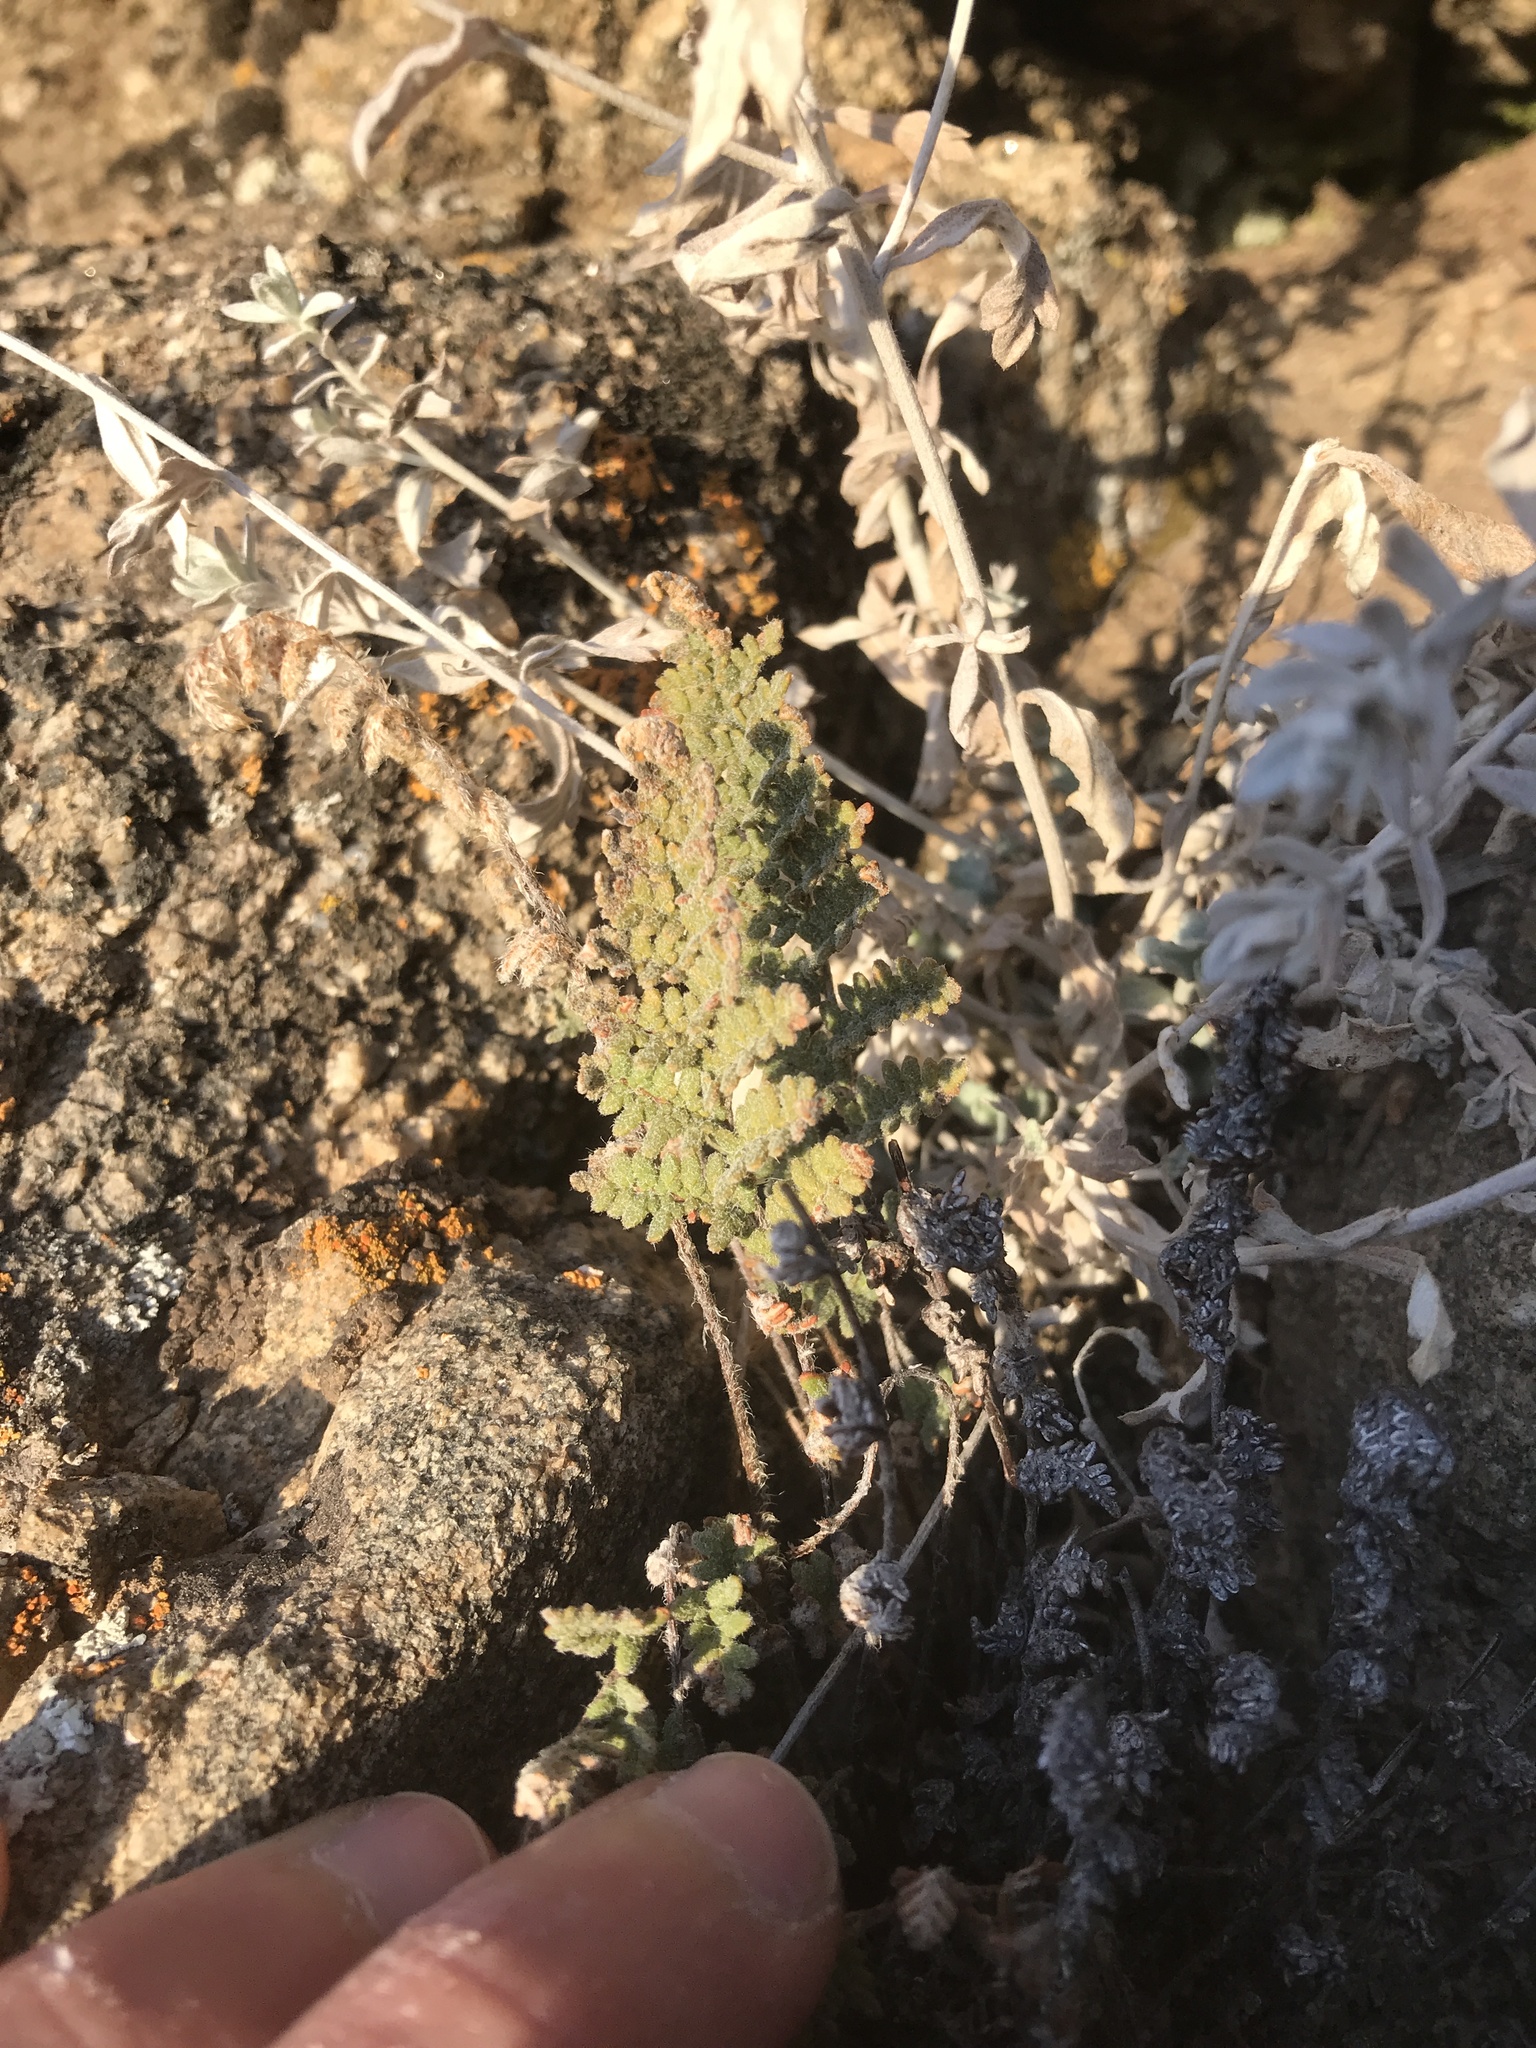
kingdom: Plantae
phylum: Tracheophyta
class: Polypodiopsida
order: Polypodiales
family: Pteridaceae
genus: Myriopteris
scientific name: Myriopteris rufa
